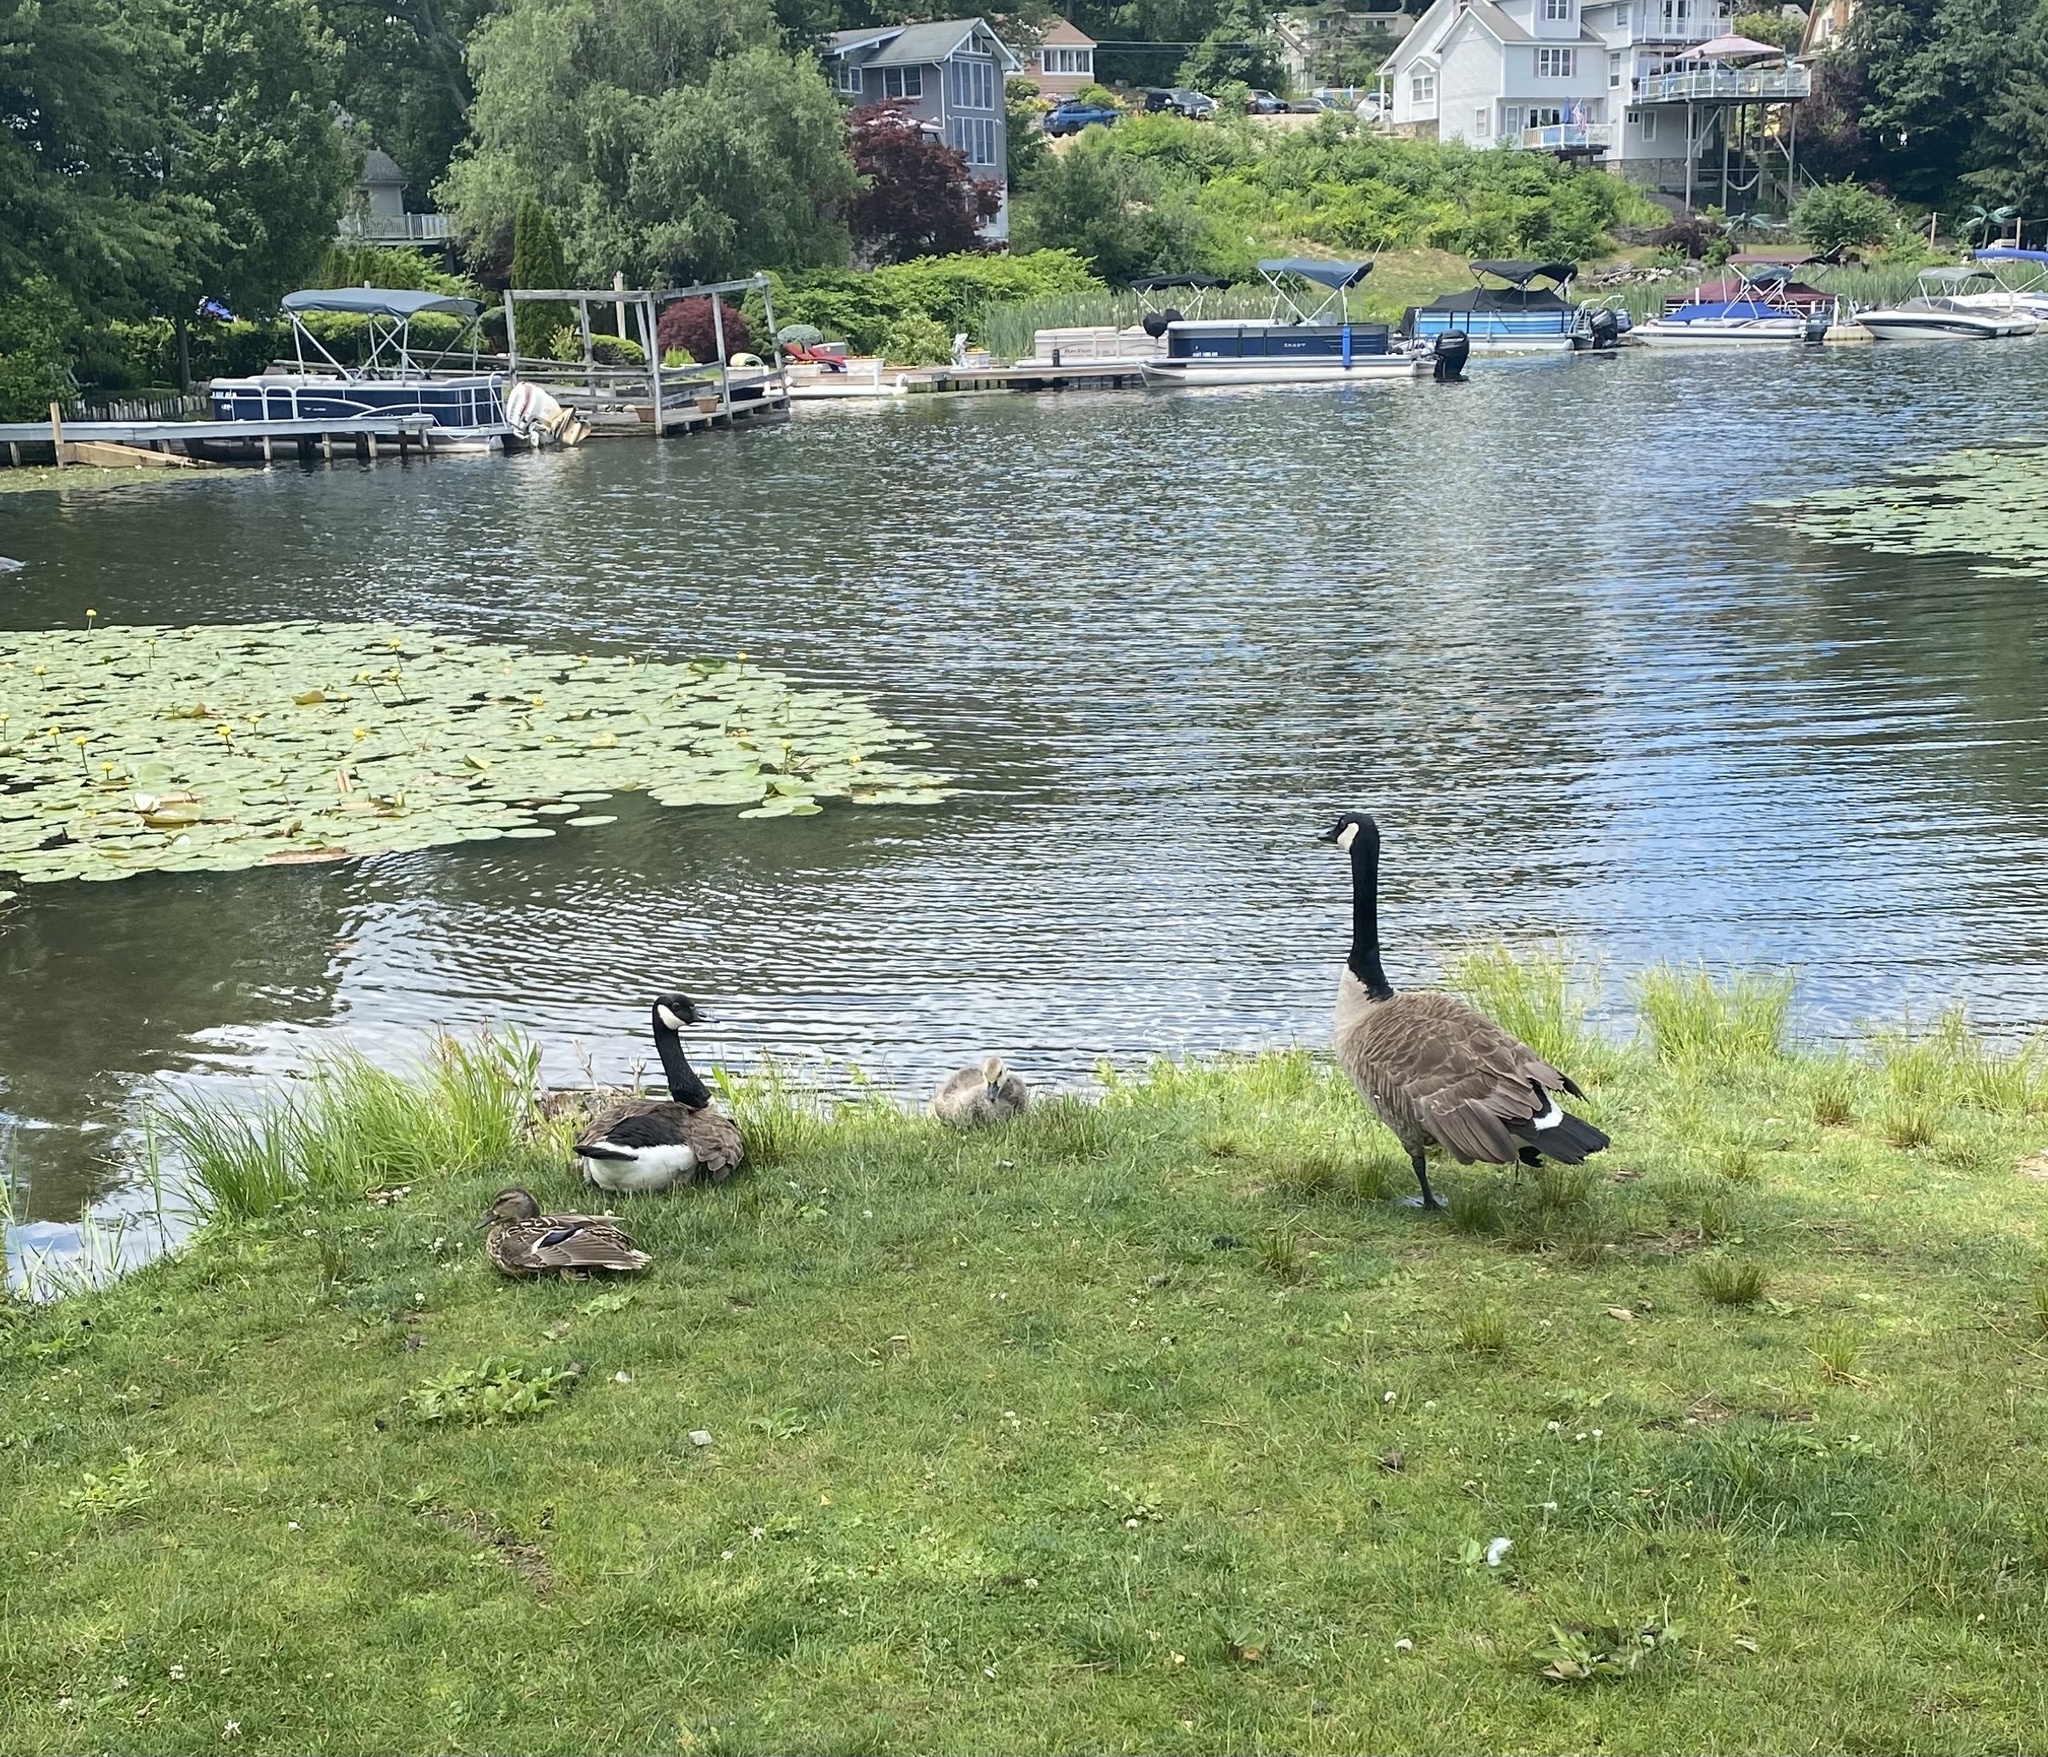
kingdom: Animalia
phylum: Chordata
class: Aves
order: Anseriformes
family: Anatidae
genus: Branta
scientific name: Branta canadensis
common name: Canada goose
